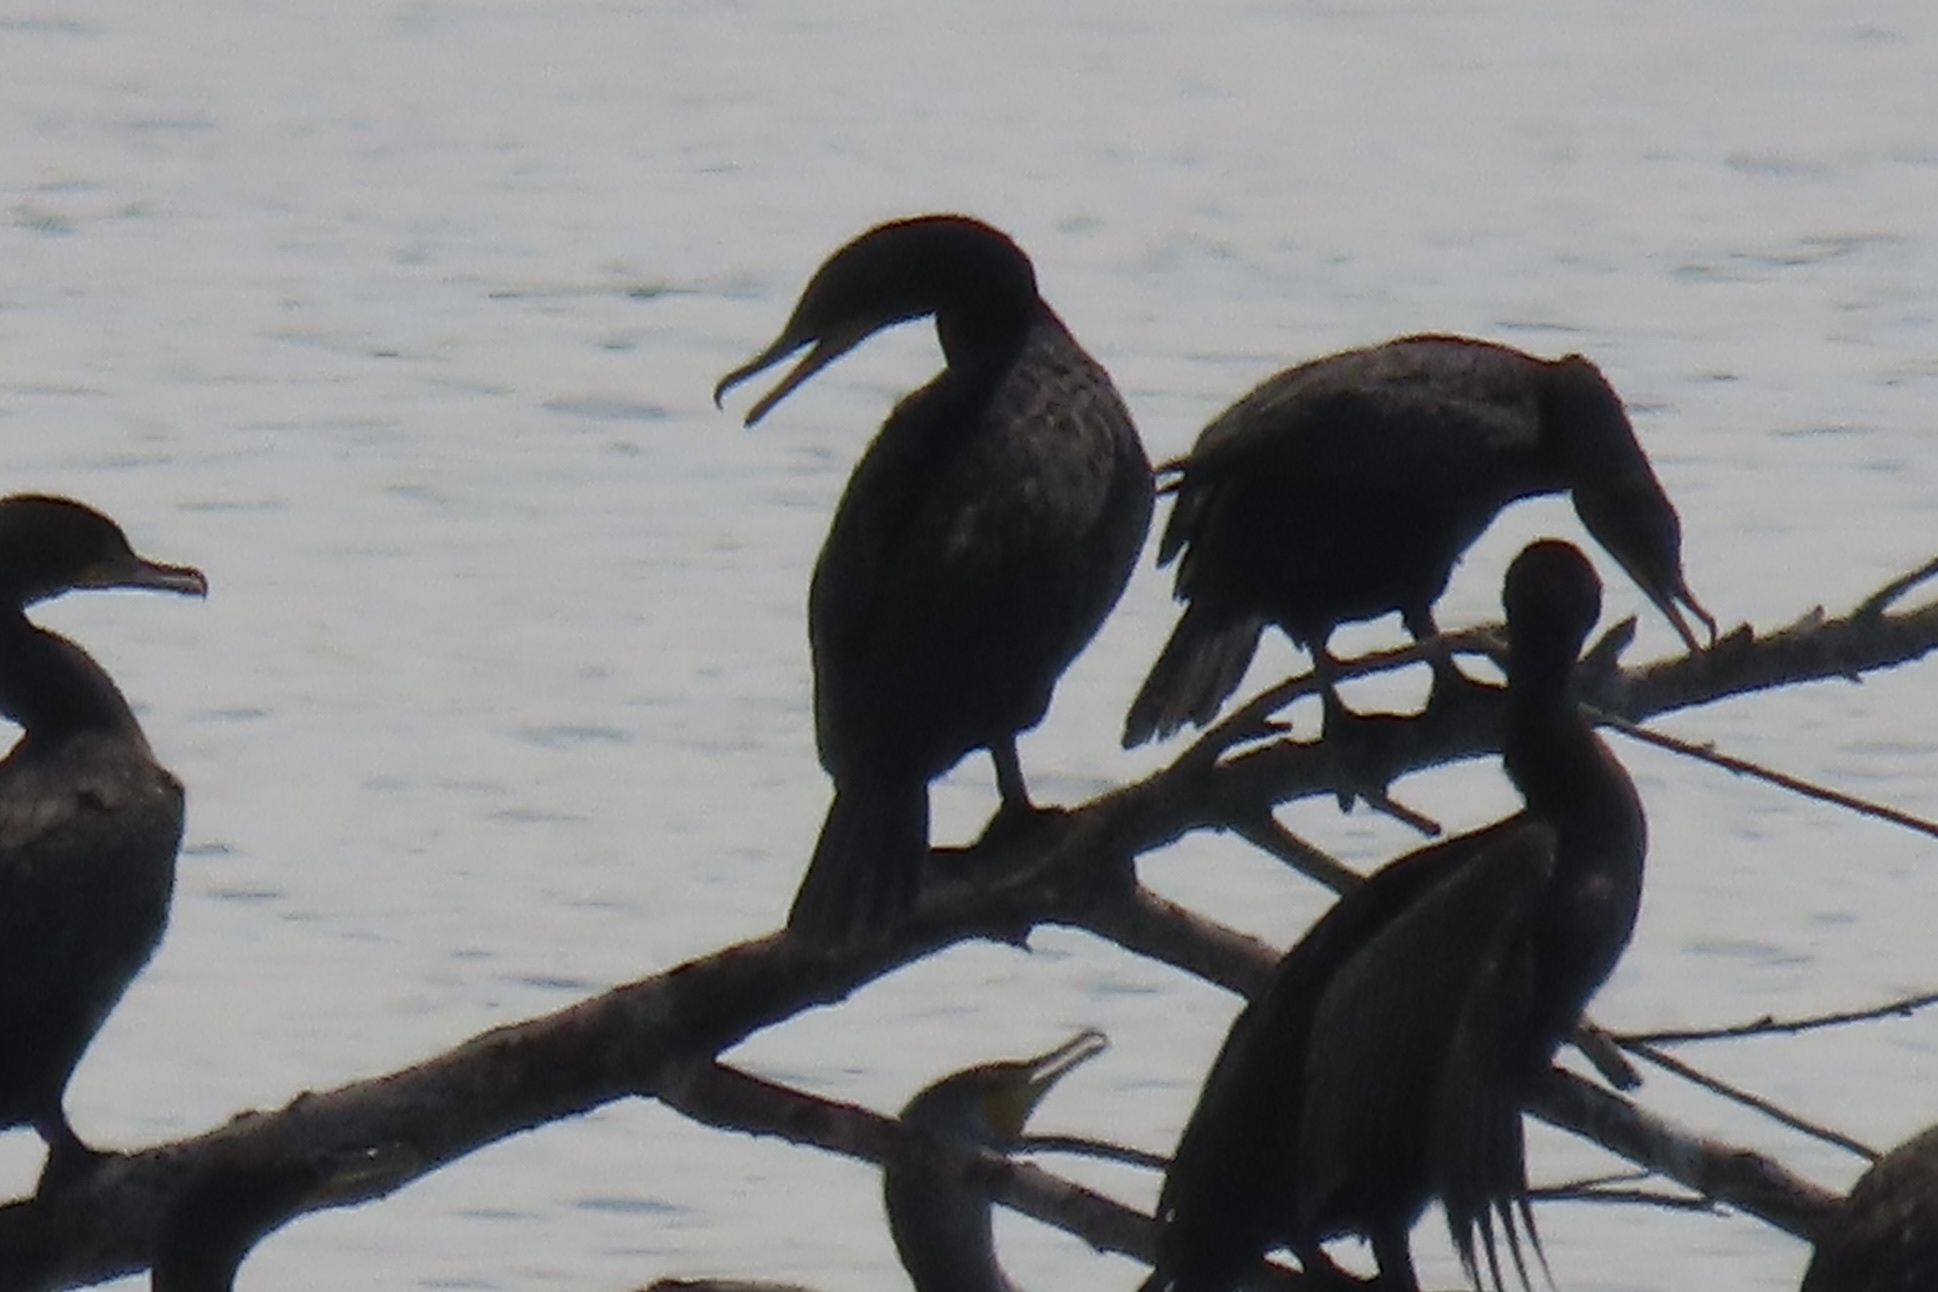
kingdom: Animalia
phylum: Chordata
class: Aves
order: Suliformes
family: Phalacrocoracidae
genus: Phalacrocorax
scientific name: Phalacrocorax auritus
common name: Double-crested cormorant
